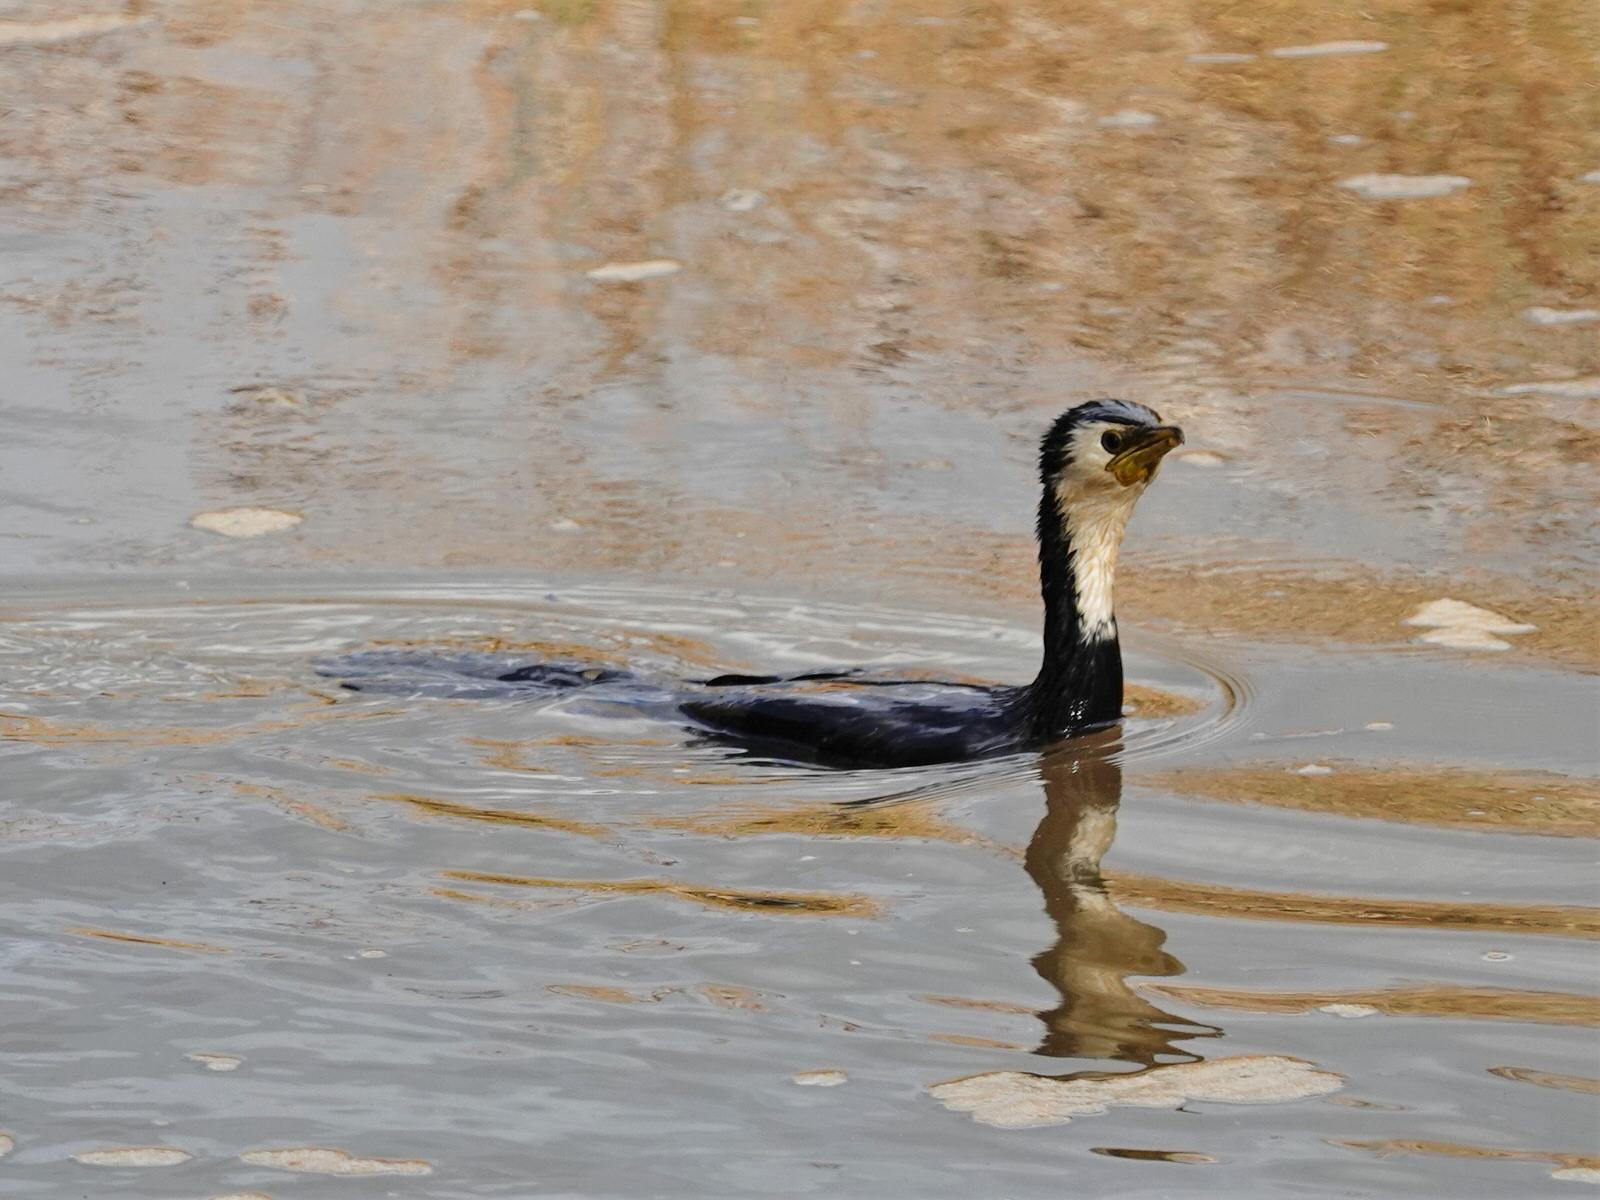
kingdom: Animalia
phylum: Chordata
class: Aves
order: Suliformes
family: Phalacrocoracidae
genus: Microcarbo
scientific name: Microcarbo melanoleucos
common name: Little pied cormorant
